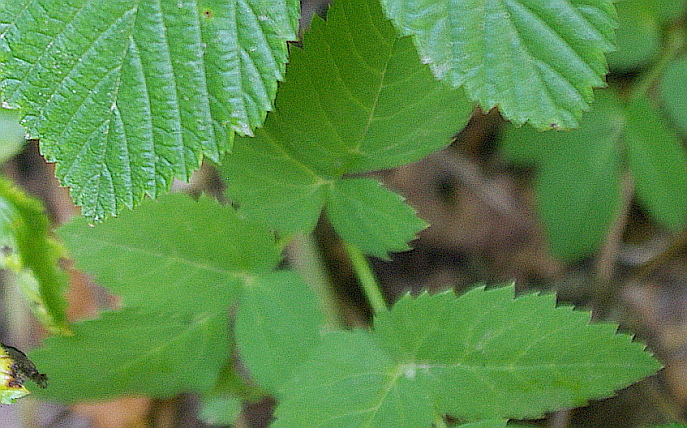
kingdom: Plantae
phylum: Tracheophyta
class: Magnoliopsida
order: Apiales
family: Apiaceae
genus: Aegopodium
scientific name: Aegopodium podagraria
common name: Ground-elder
